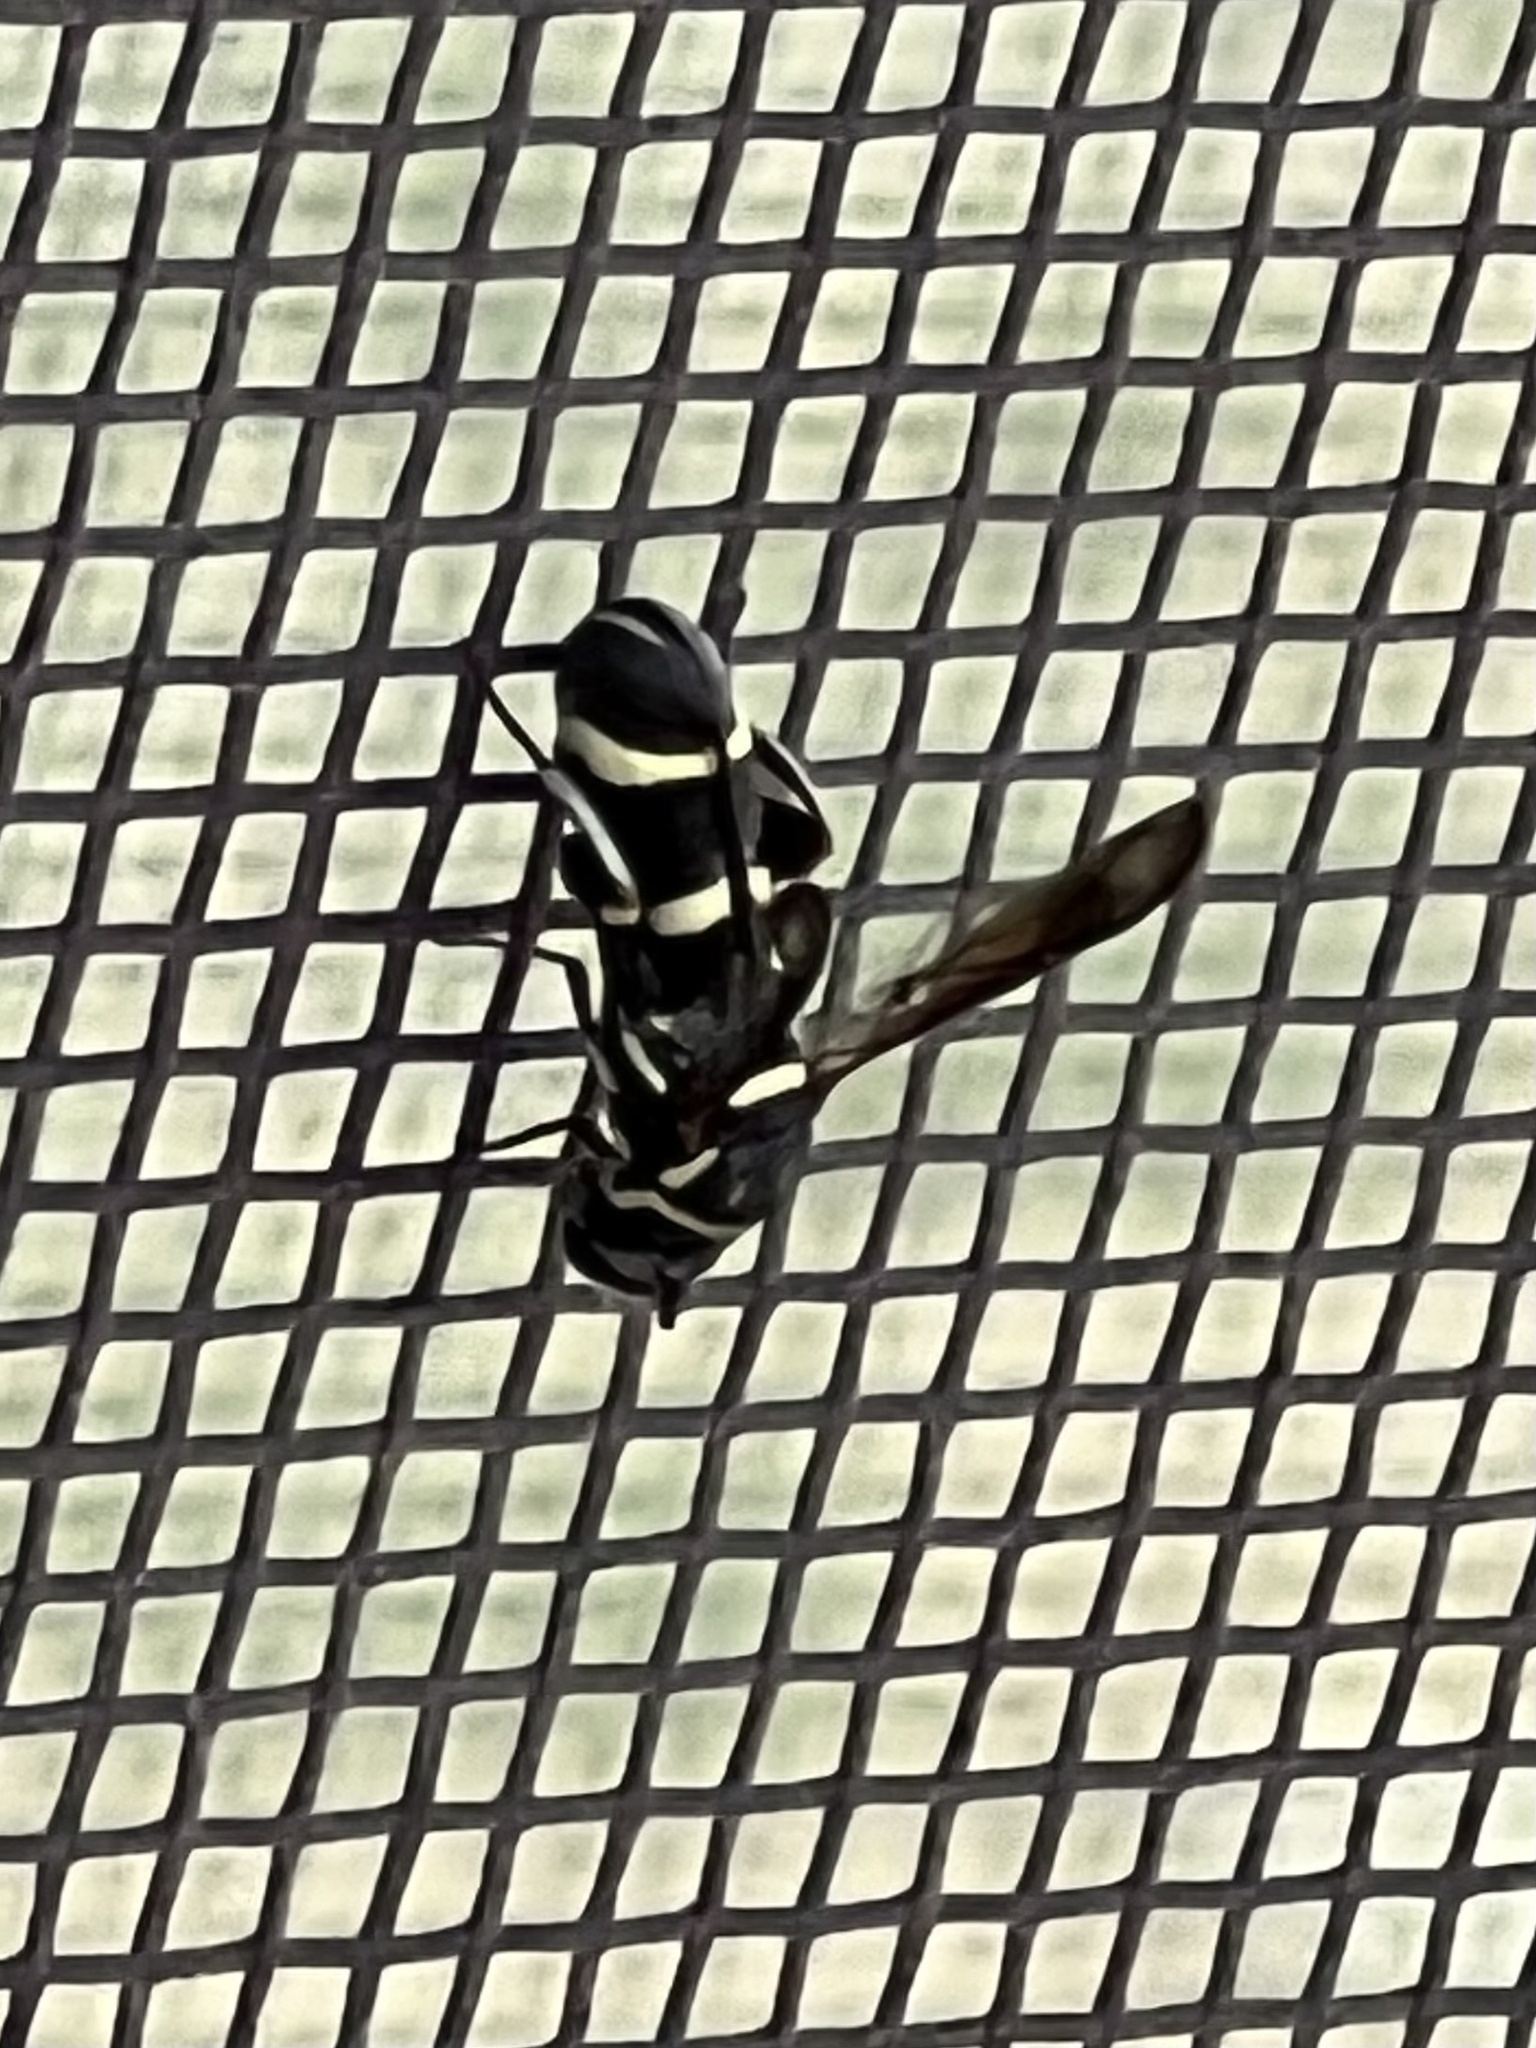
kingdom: Animalia
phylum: Arthropoda
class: Insecta
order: Hymenoptera
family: Leucospidae
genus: Leucospis
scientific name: Leucospis affinis
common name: Wasp
